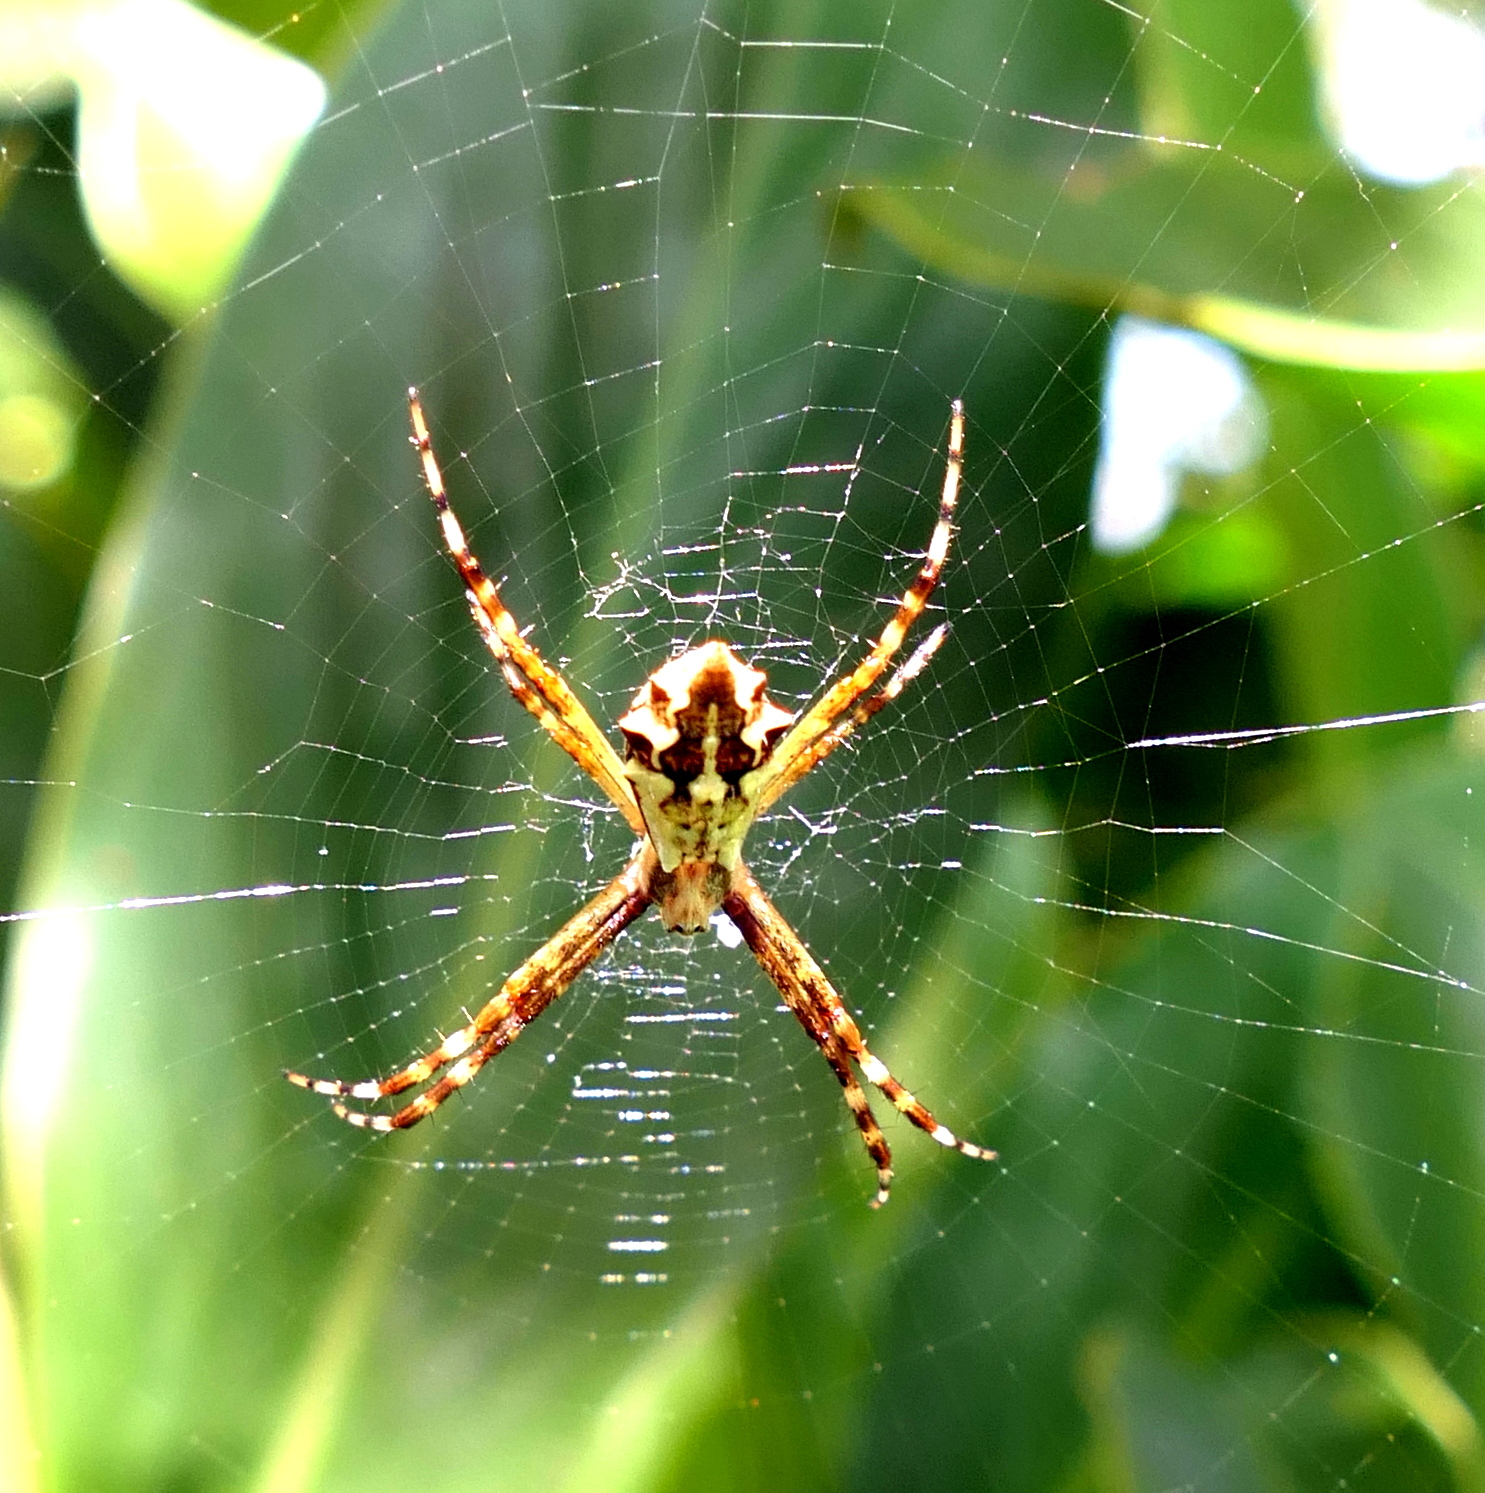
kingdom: Animalia
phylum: Arthropoda
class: Arachnida
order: Araneae
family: Araneidae
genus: Argiope
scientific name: Argiope argentata
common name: Orb weavers
